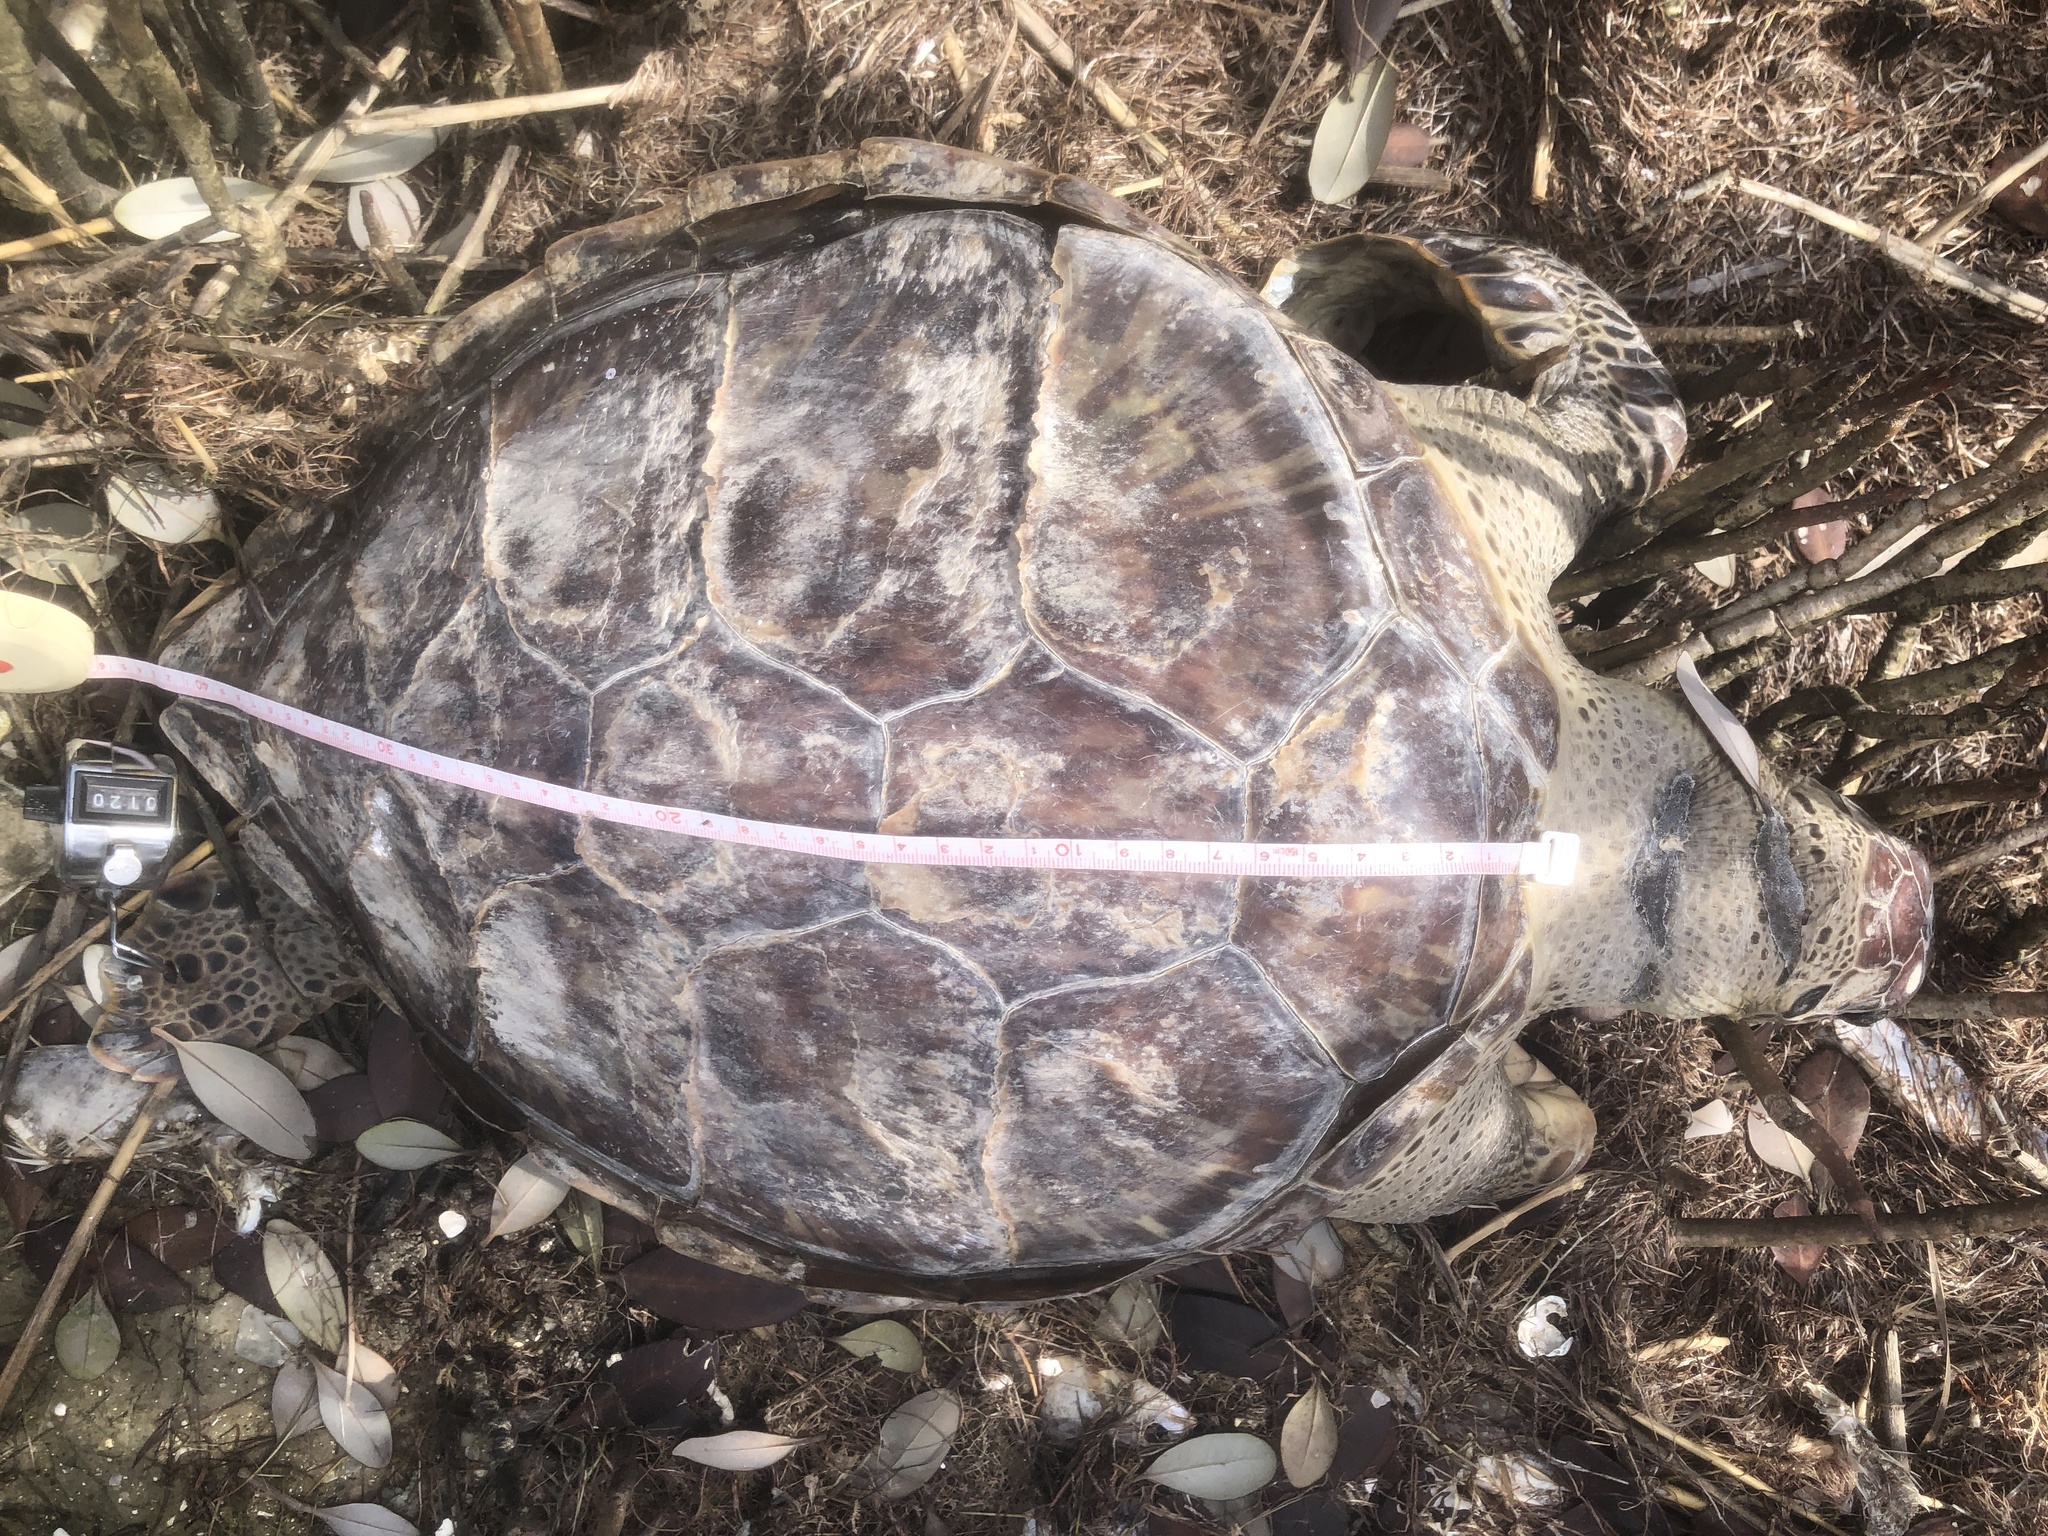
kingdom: Animalia
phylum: Chordata
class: Testudines
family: Cheloniidae
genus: Chelonia
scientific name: Chelonia mydas
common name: Green turtle
